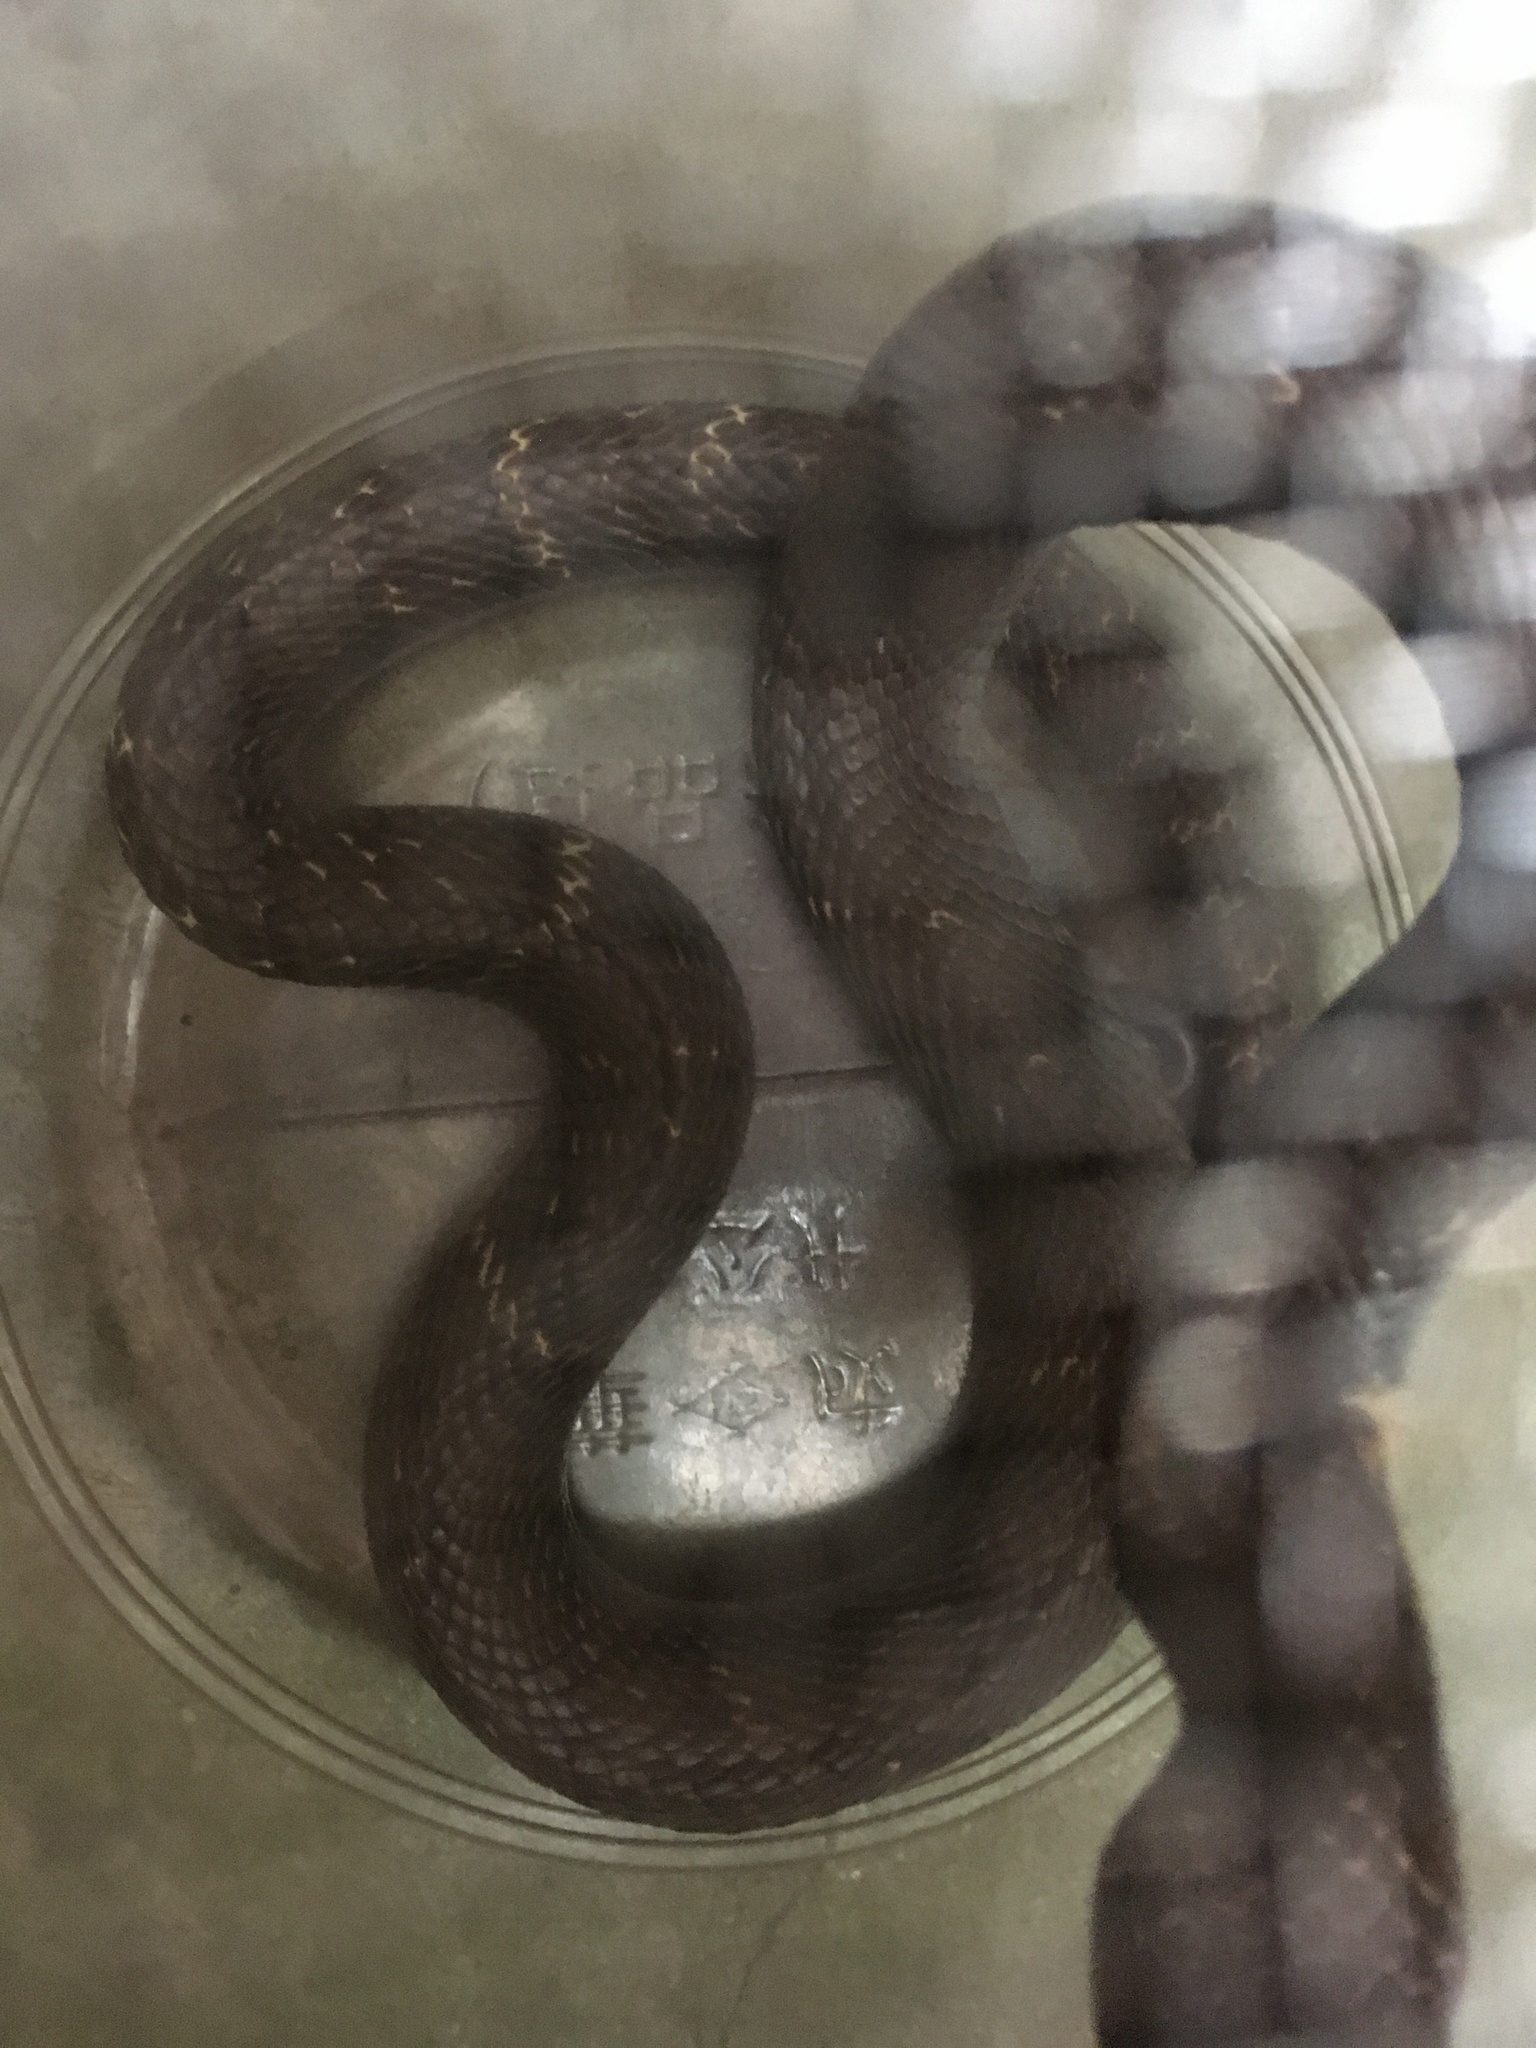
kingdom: Animalia
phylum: Chordata
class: Squamata
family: Elapidae
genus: Naja
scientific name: Naja atra
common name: Chinese cobra
